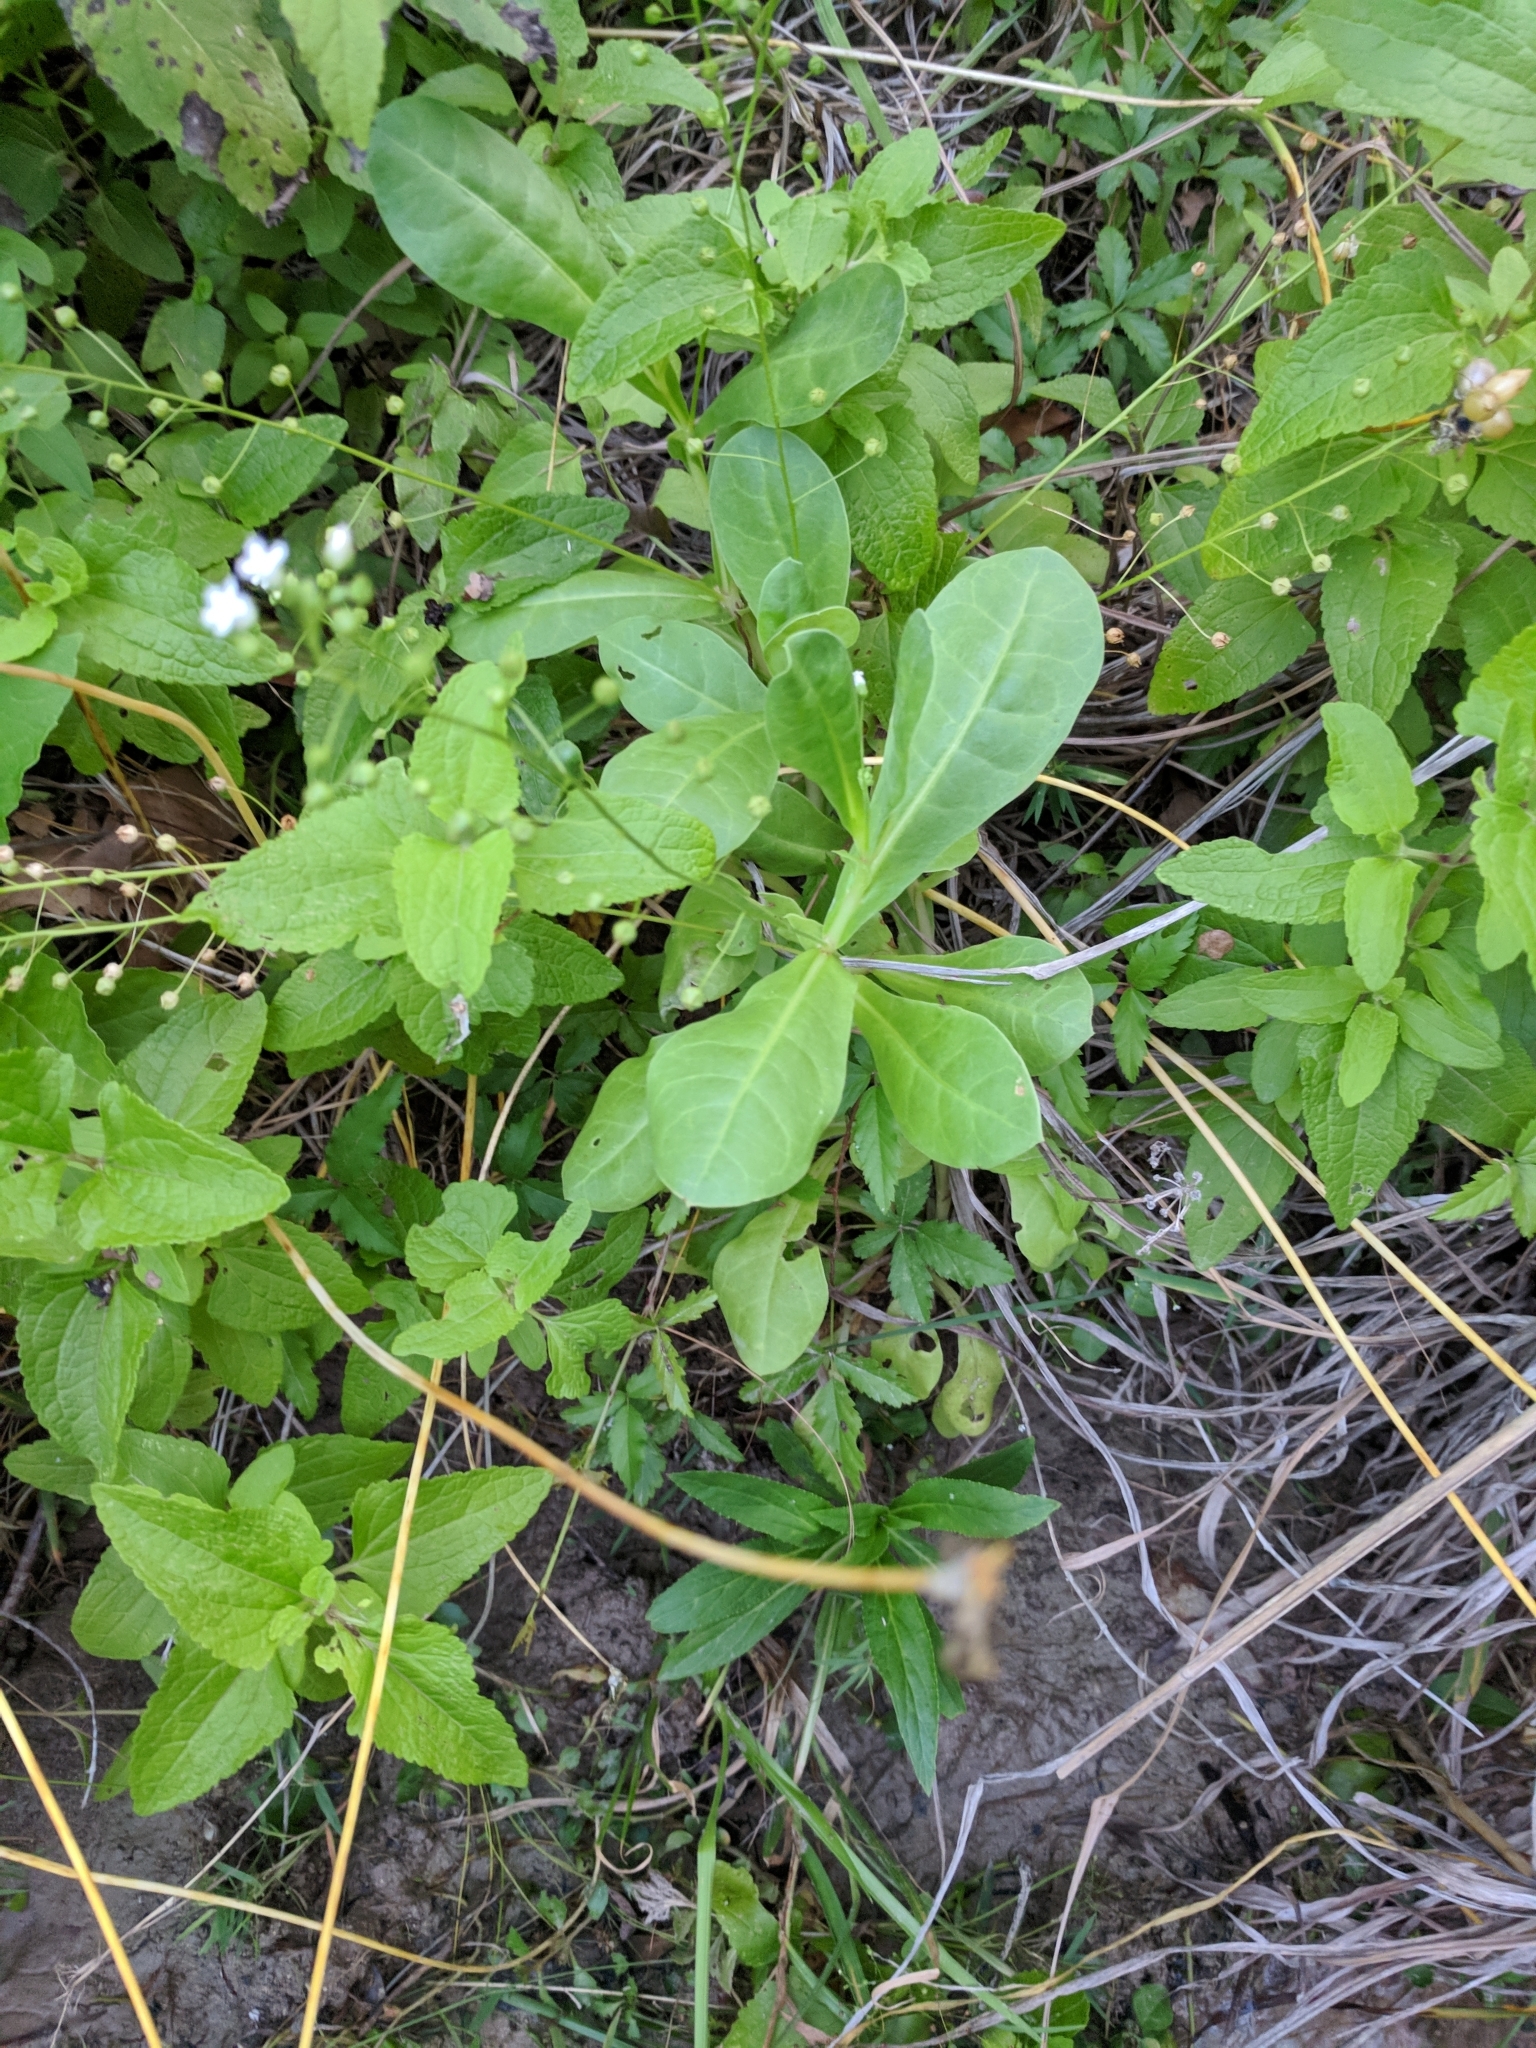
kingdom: Plantae
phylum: Tracheophyta
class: Magnoliopsida
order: Ericales
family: Primulaceae
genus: Samolus
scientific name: Samolus ebracteatus
